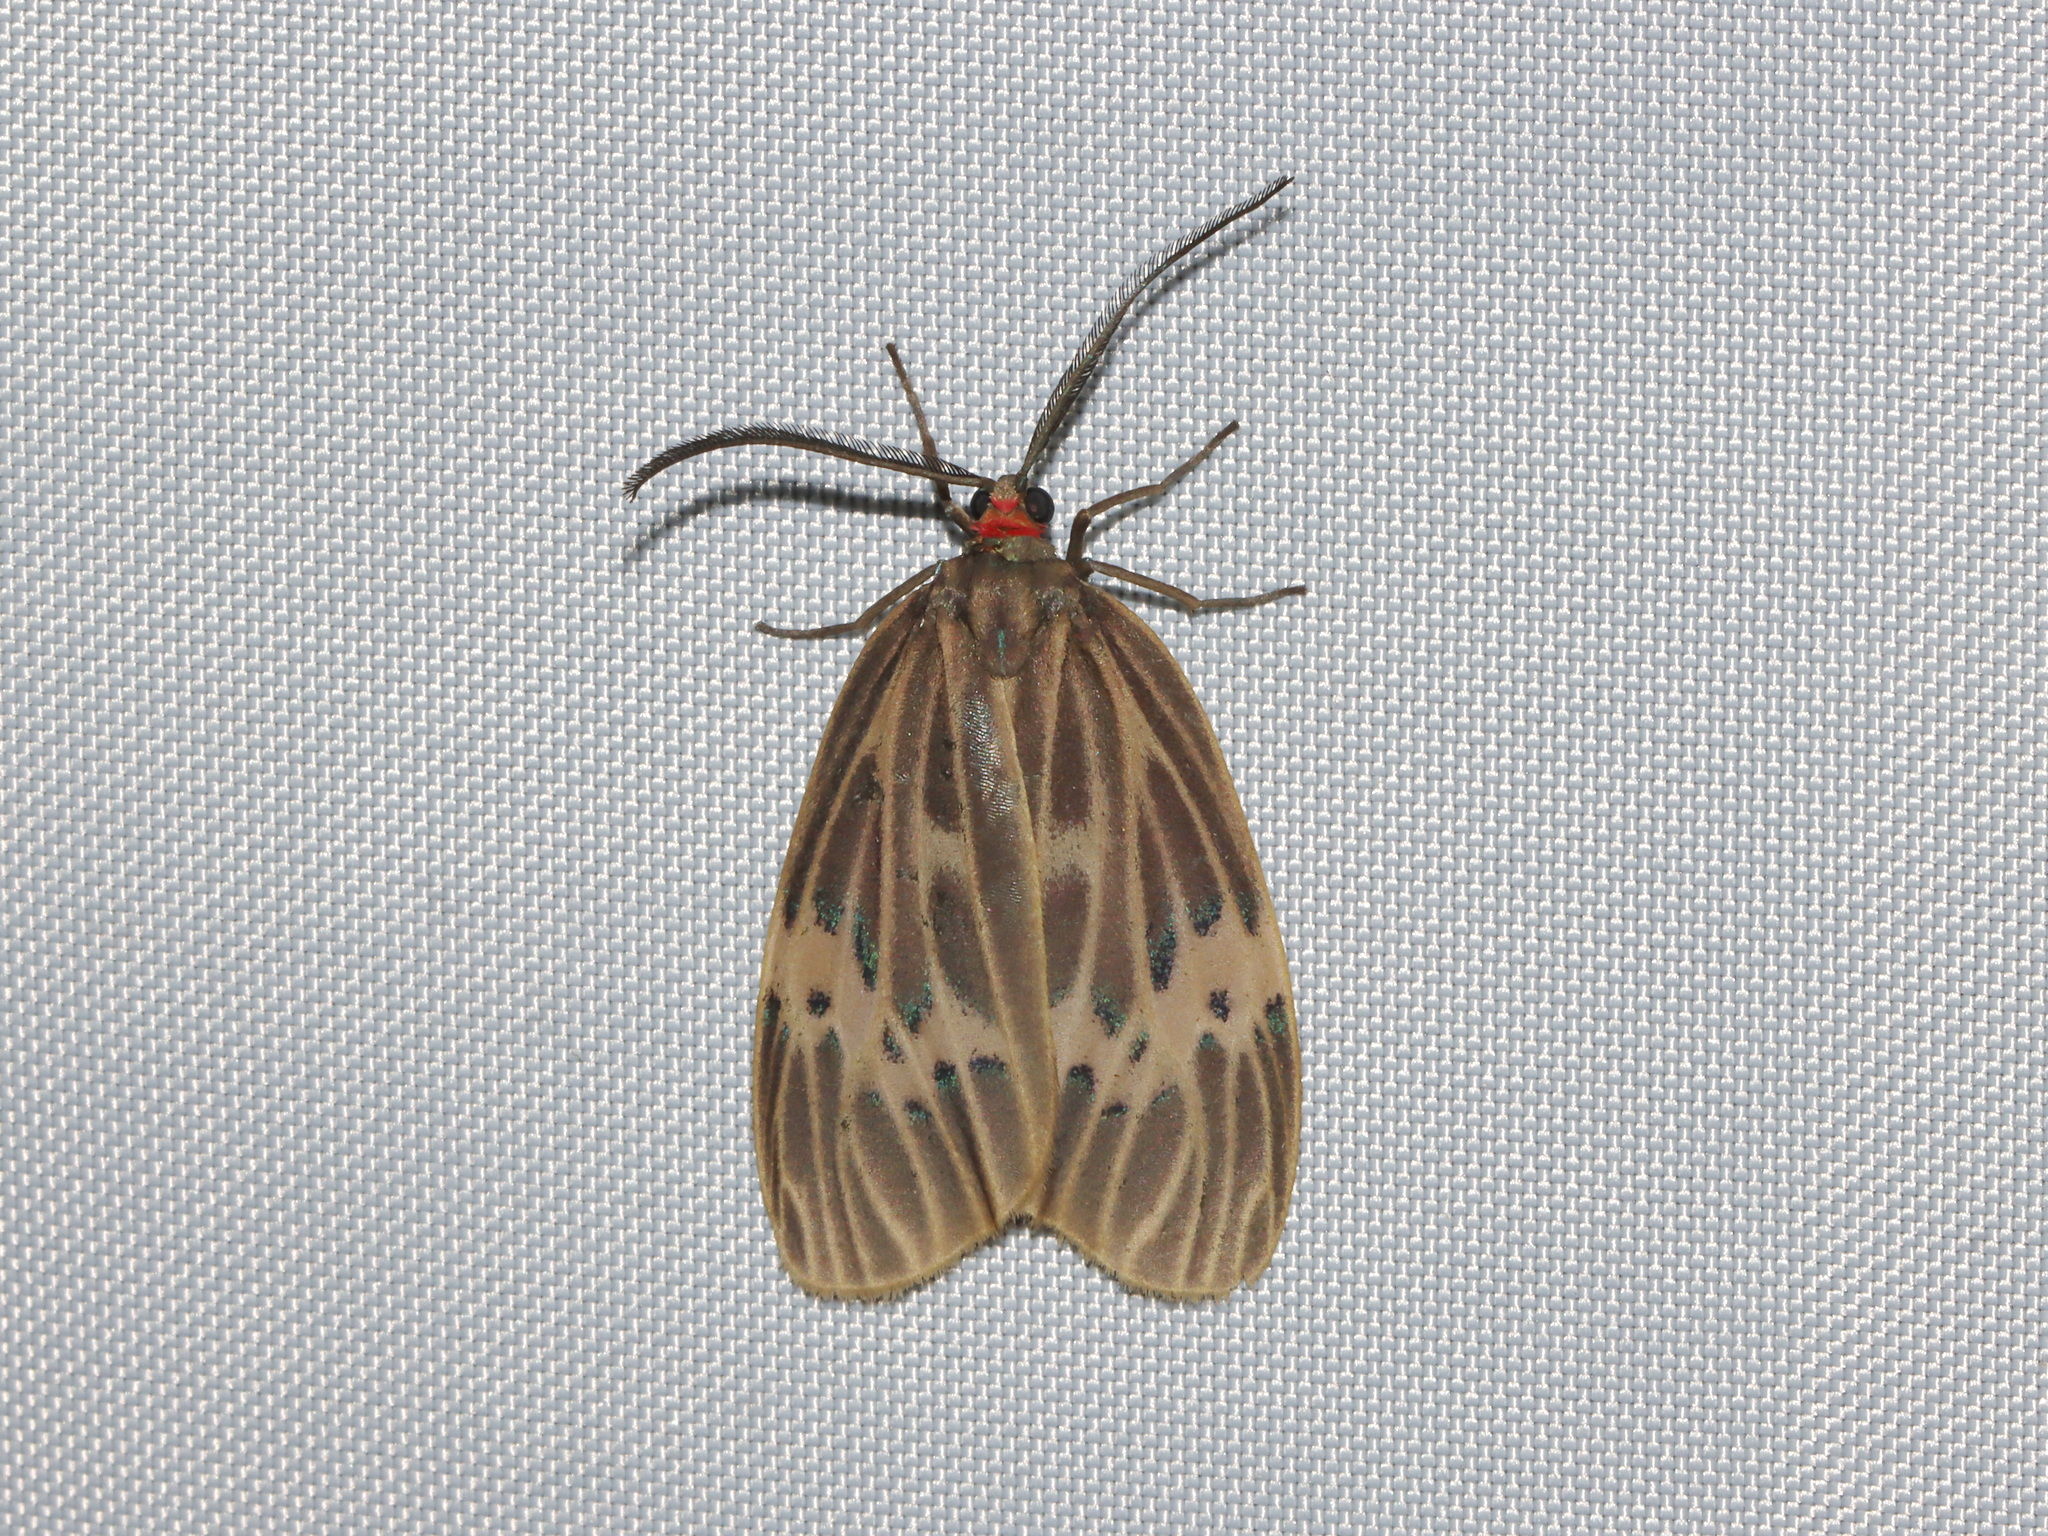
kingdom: Animalia
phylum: Arthropoda
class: Insecta
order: Lepidoptera
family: Zygaenidae
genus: Prosopandrophila
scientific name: Prosopandrophila mirifica
